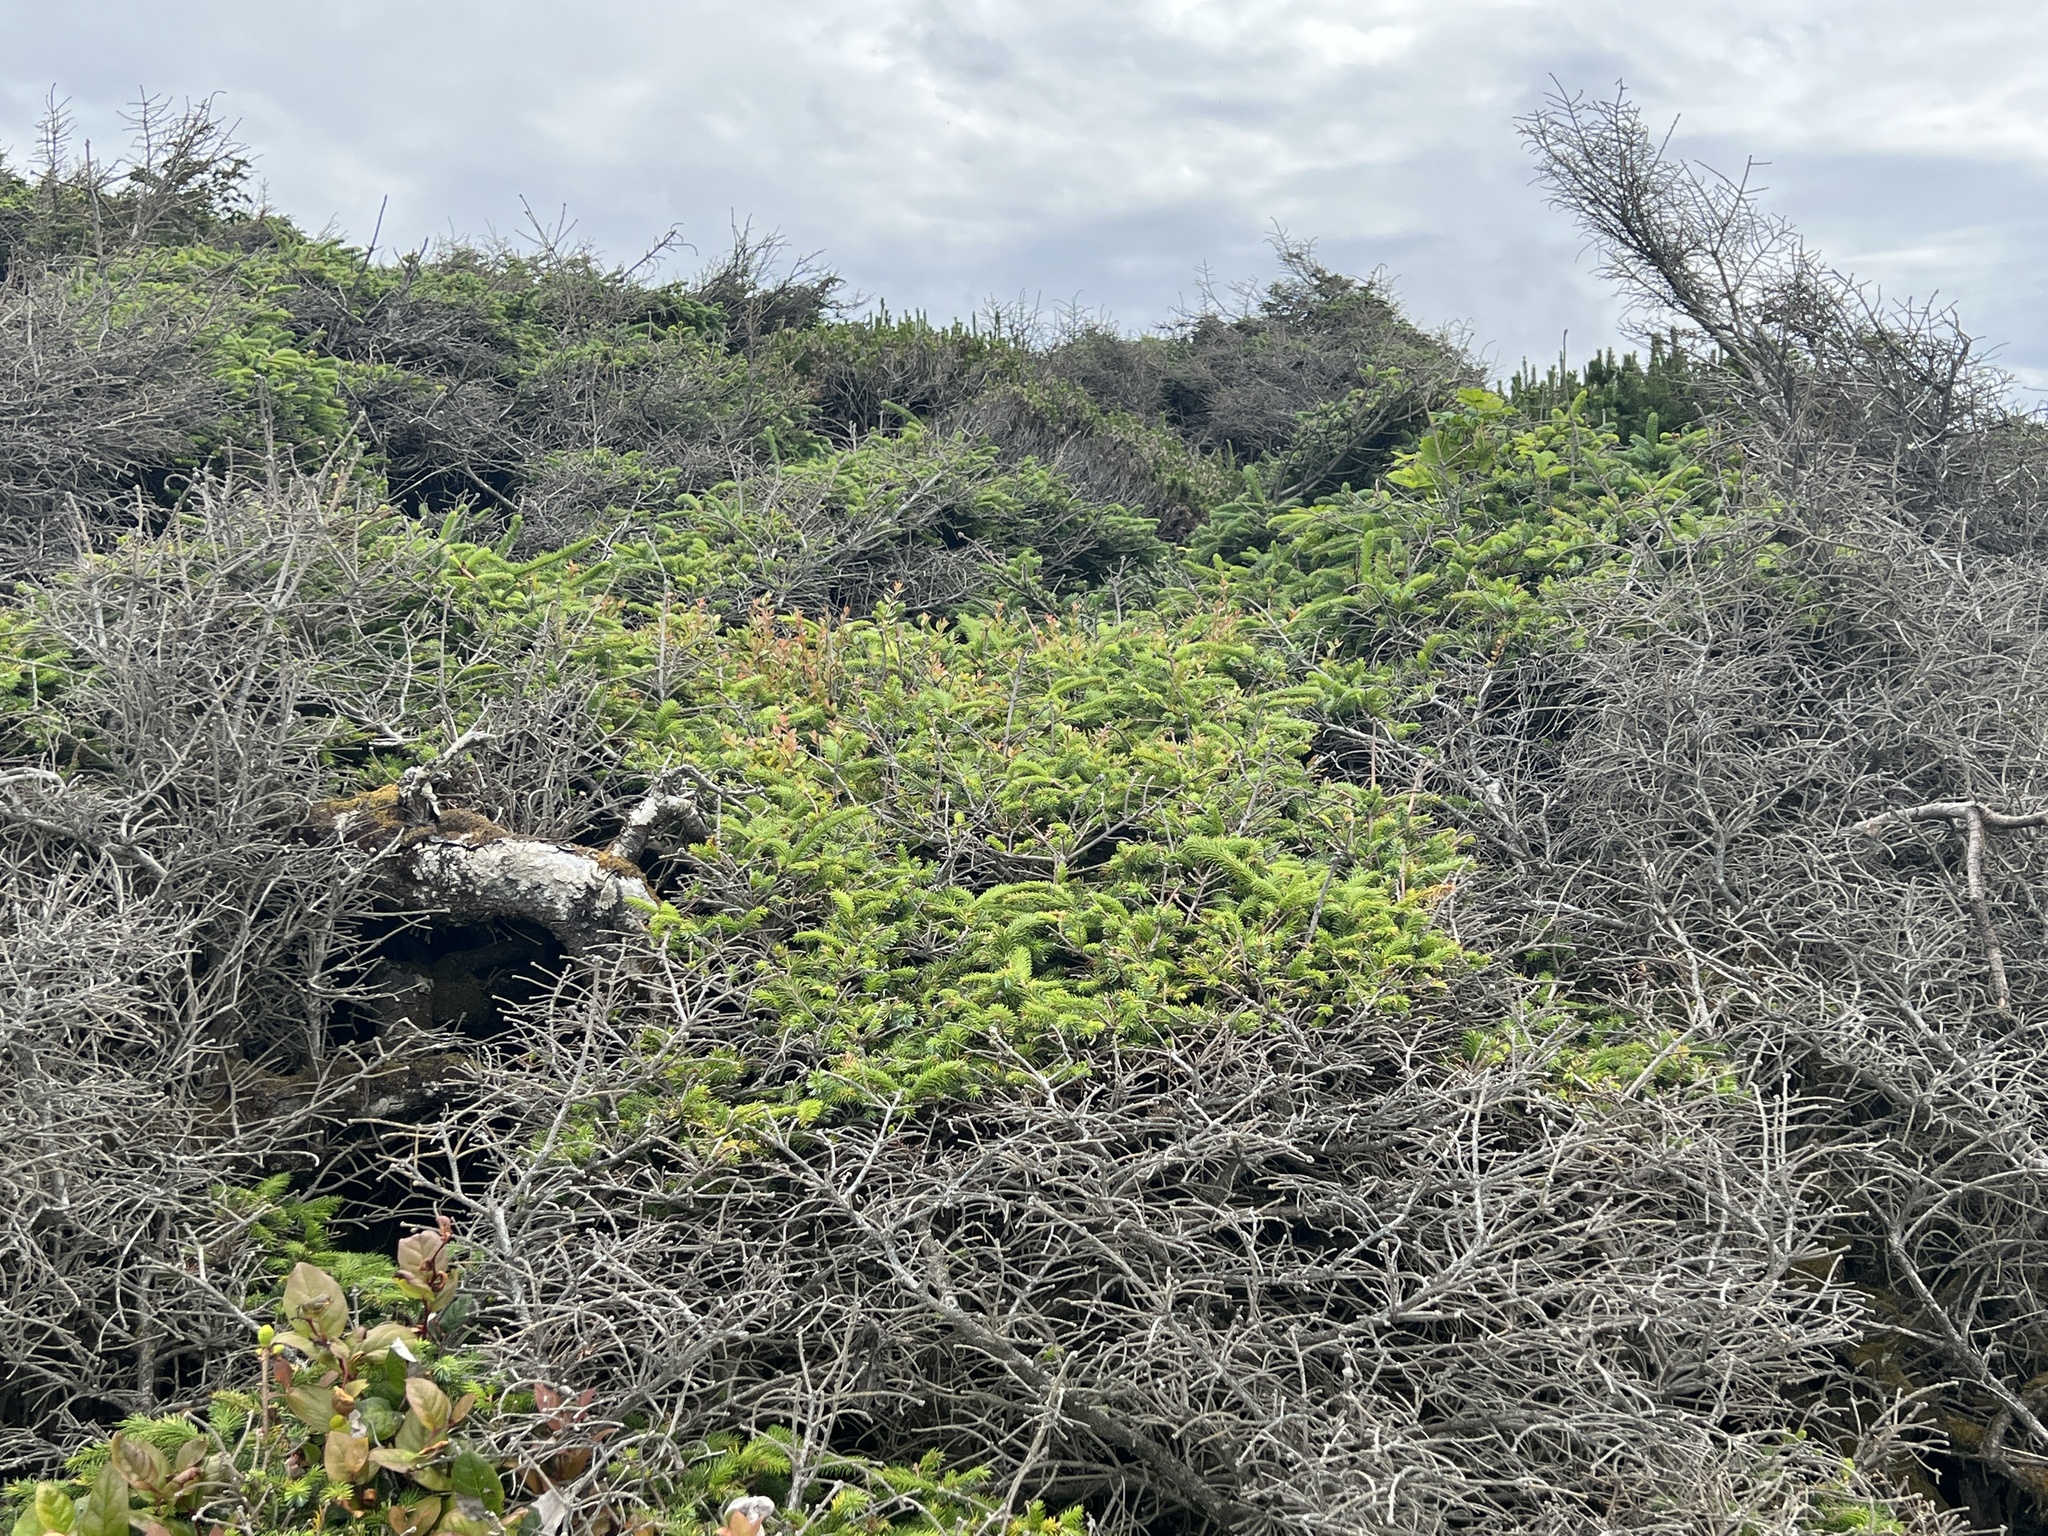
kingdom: Plantae
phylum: Tracheophyta
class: Pinopsida
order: Pinales
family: Pinaceae
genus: Picea
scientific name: Picea sitchensis
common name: Sitka spruce
